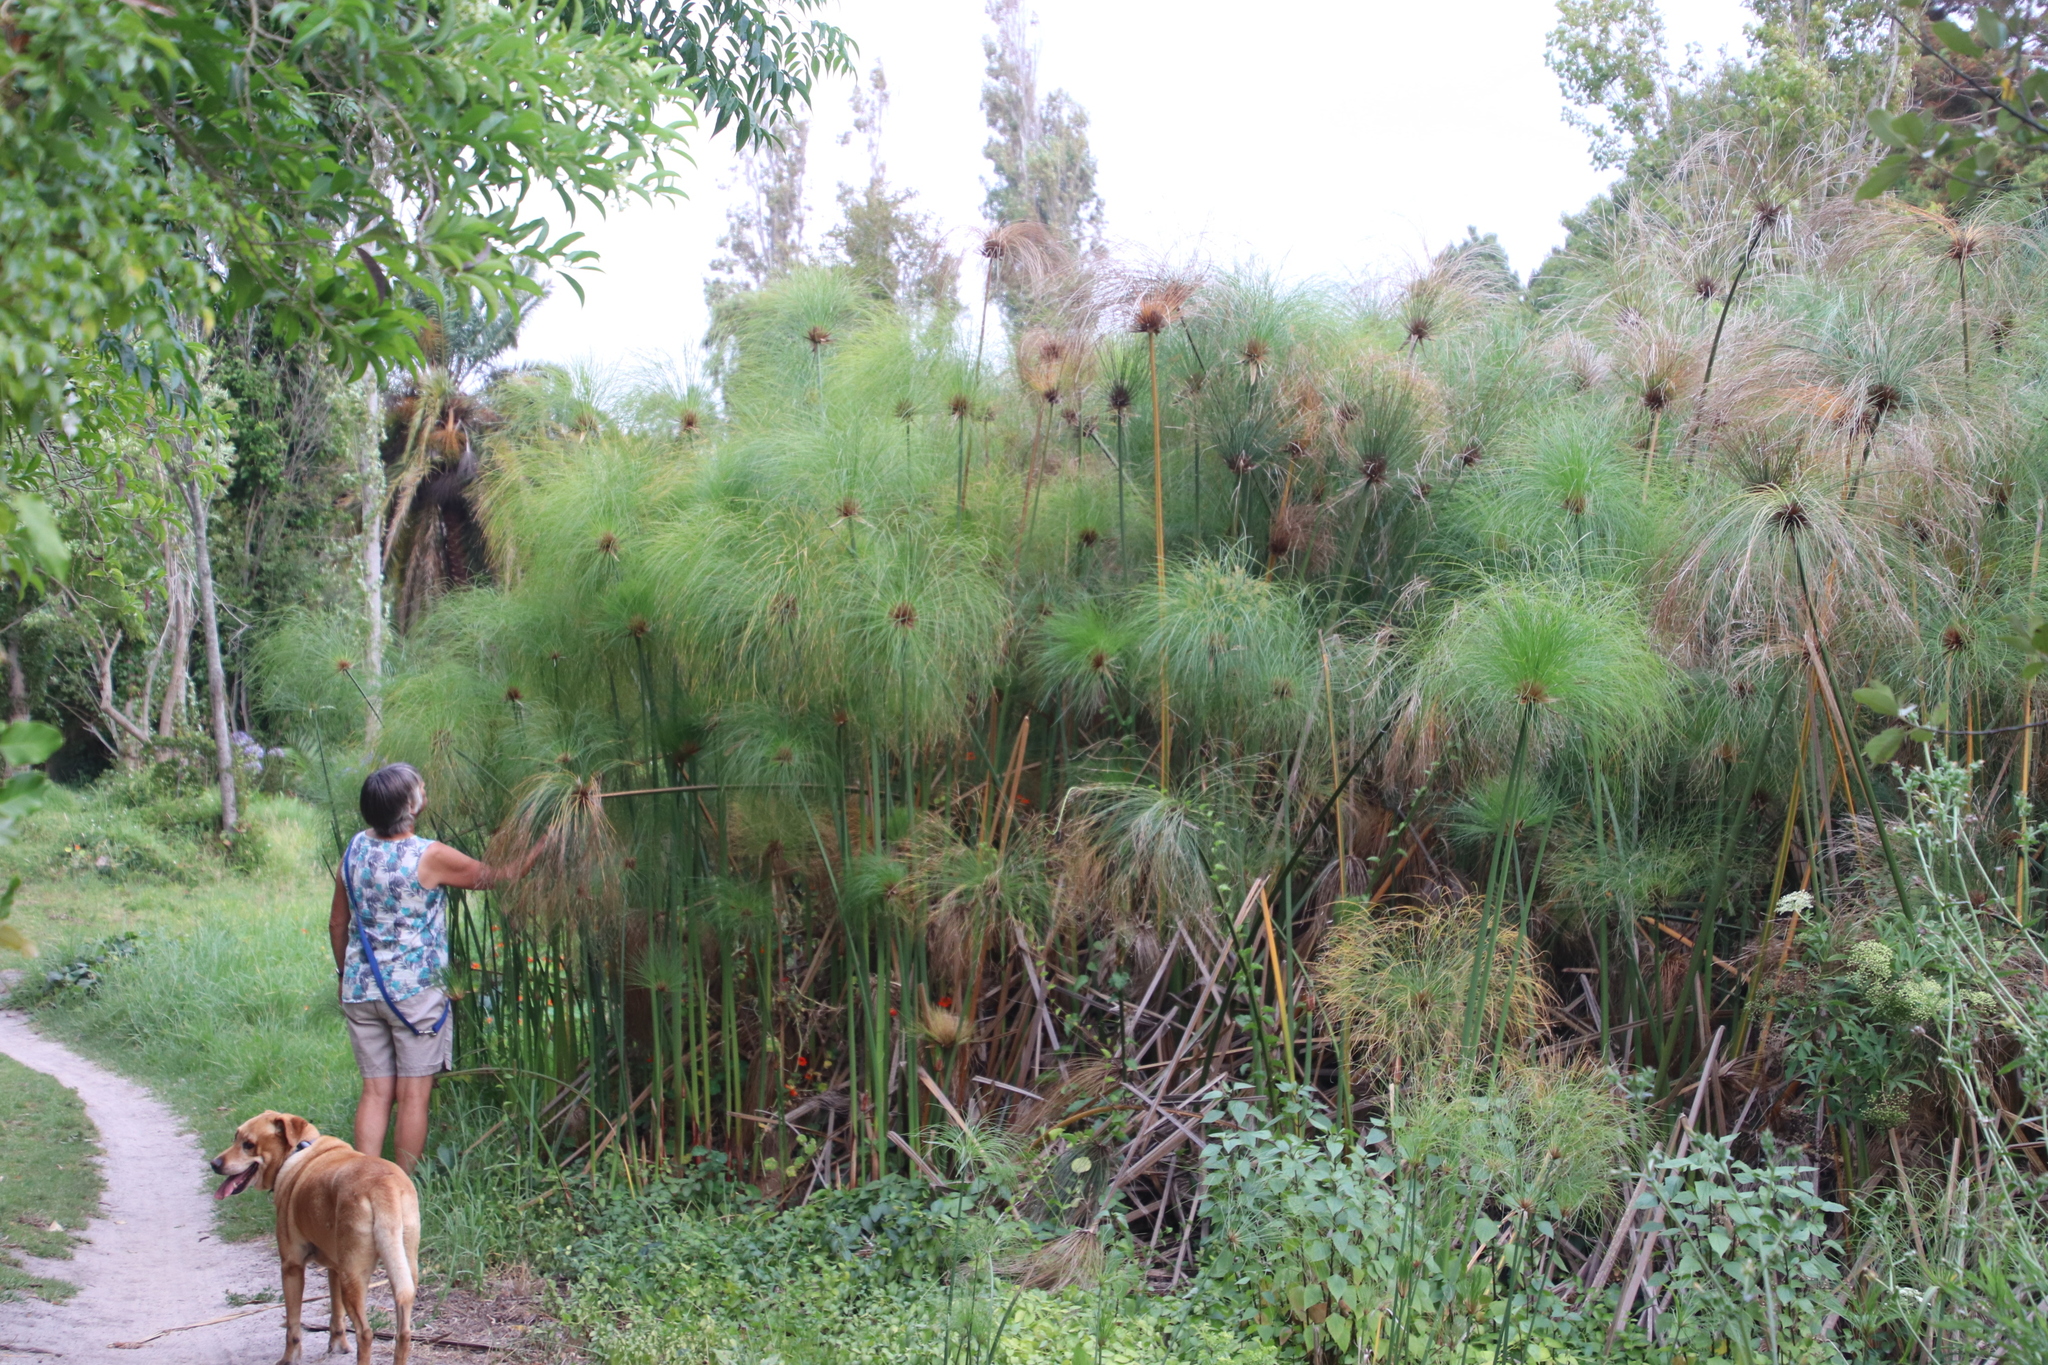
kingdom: Plantae
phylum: Tracheophyta
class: Liliopsida
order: Poales
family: Cyperaceae
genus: Cyperus
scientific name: Cyperus papyrus
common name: Papyrus
